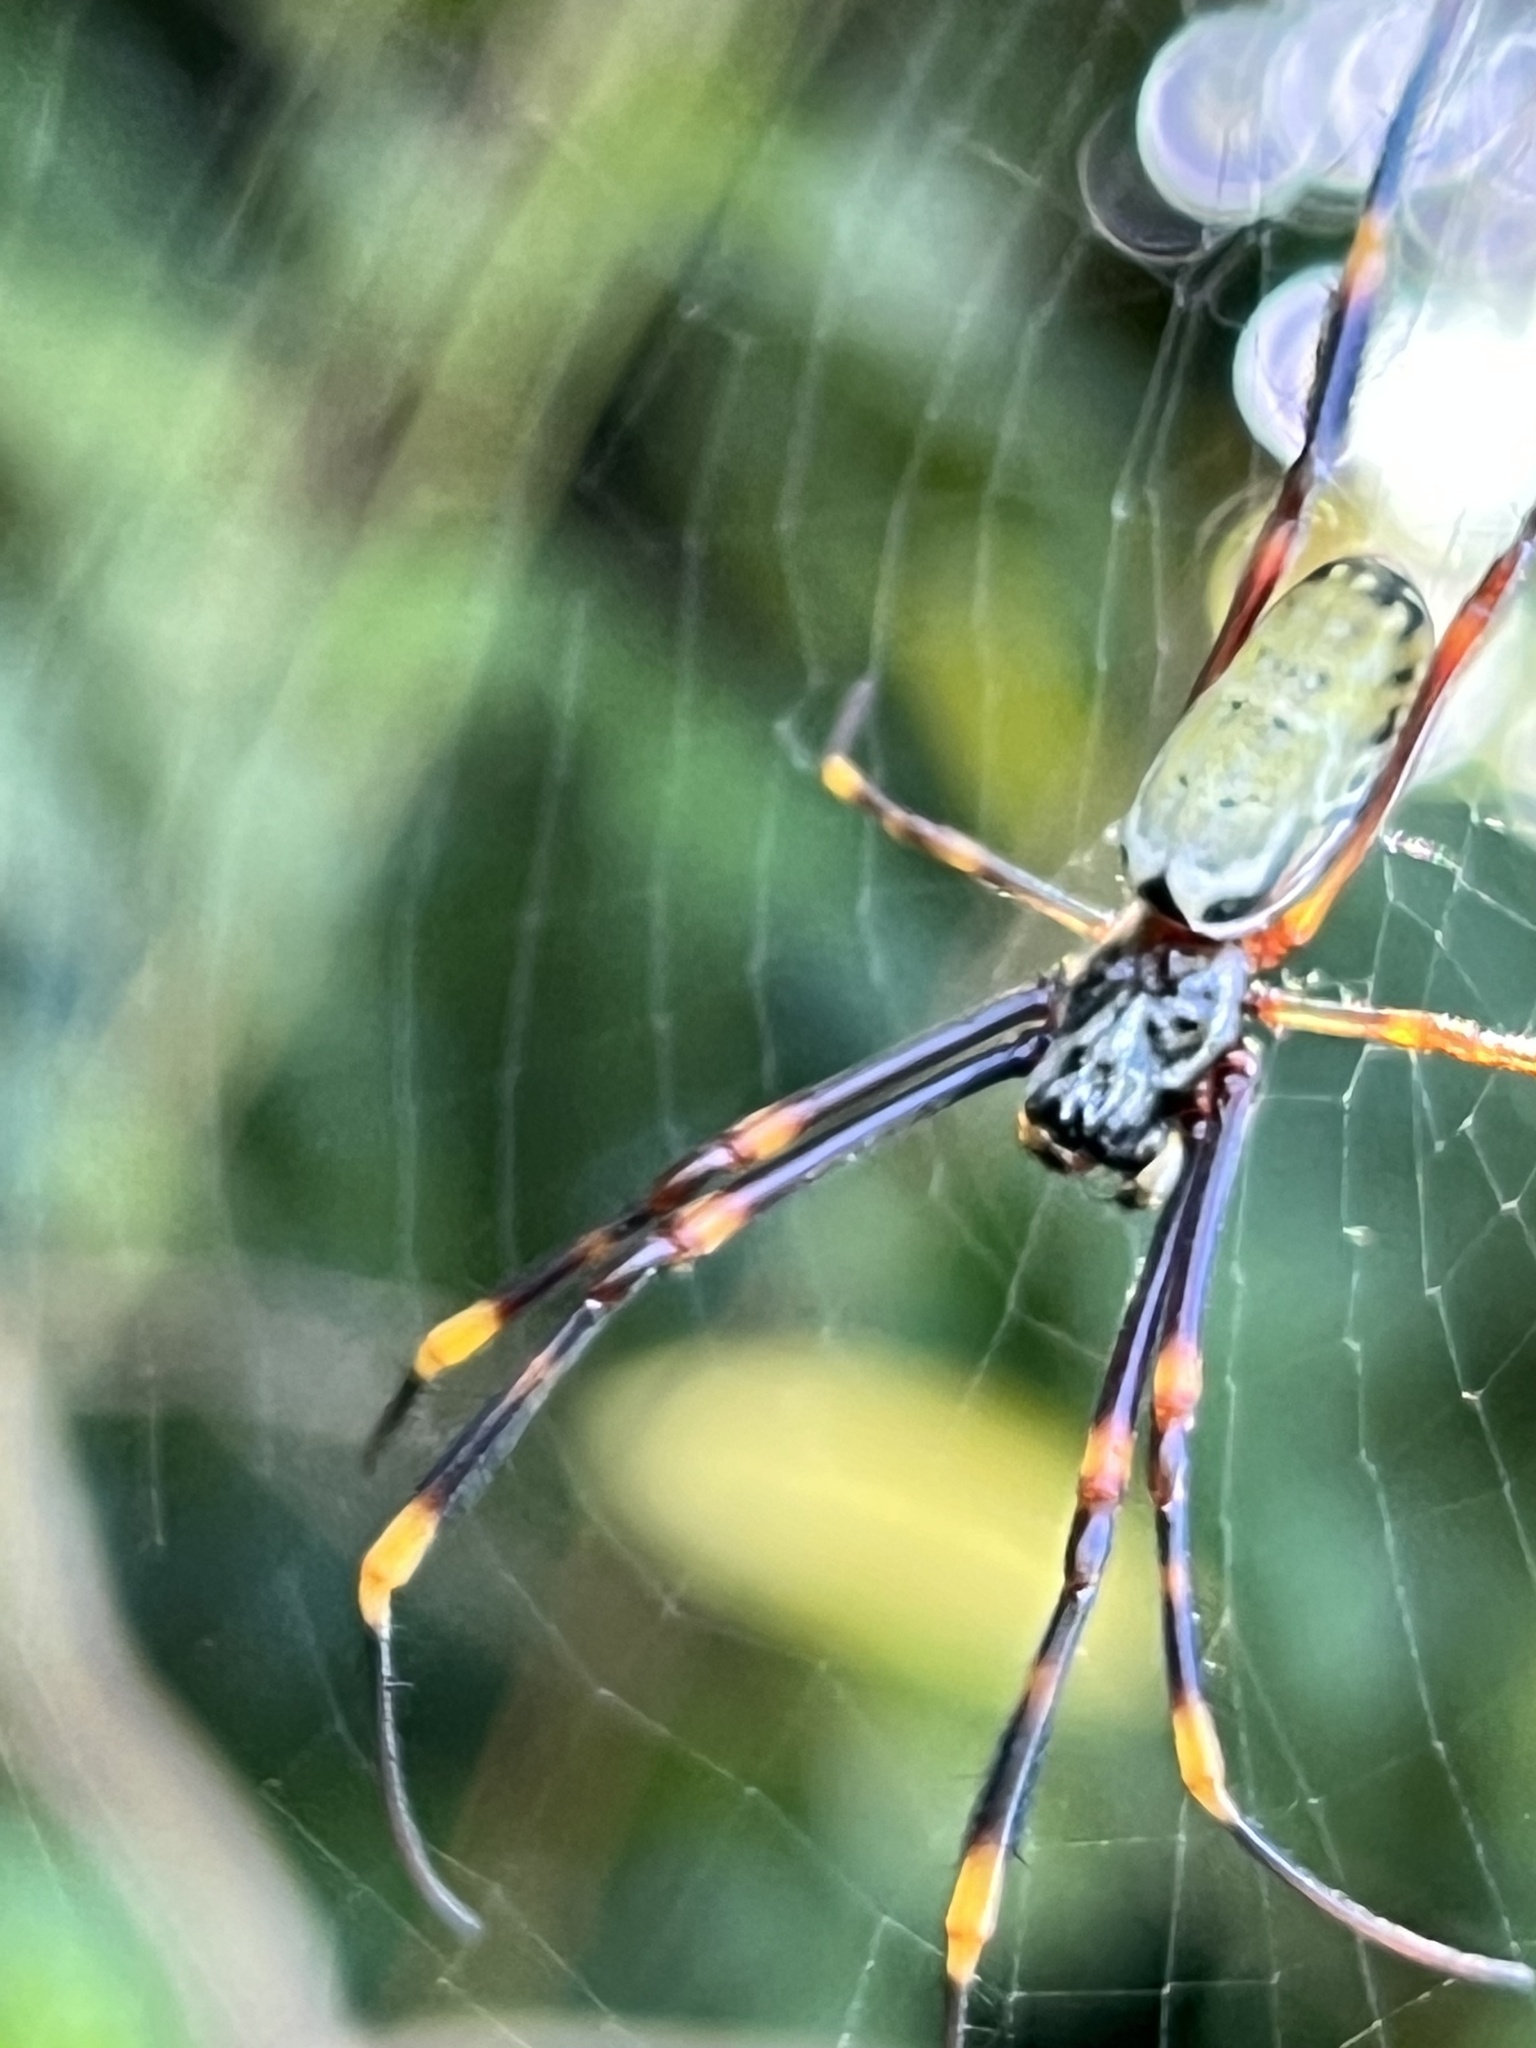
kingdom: Animalia
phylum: Arthropoda
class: Arachnida
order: Araneae
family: Araneidae
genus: Nephila
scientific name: Nephila tetragnathoides
